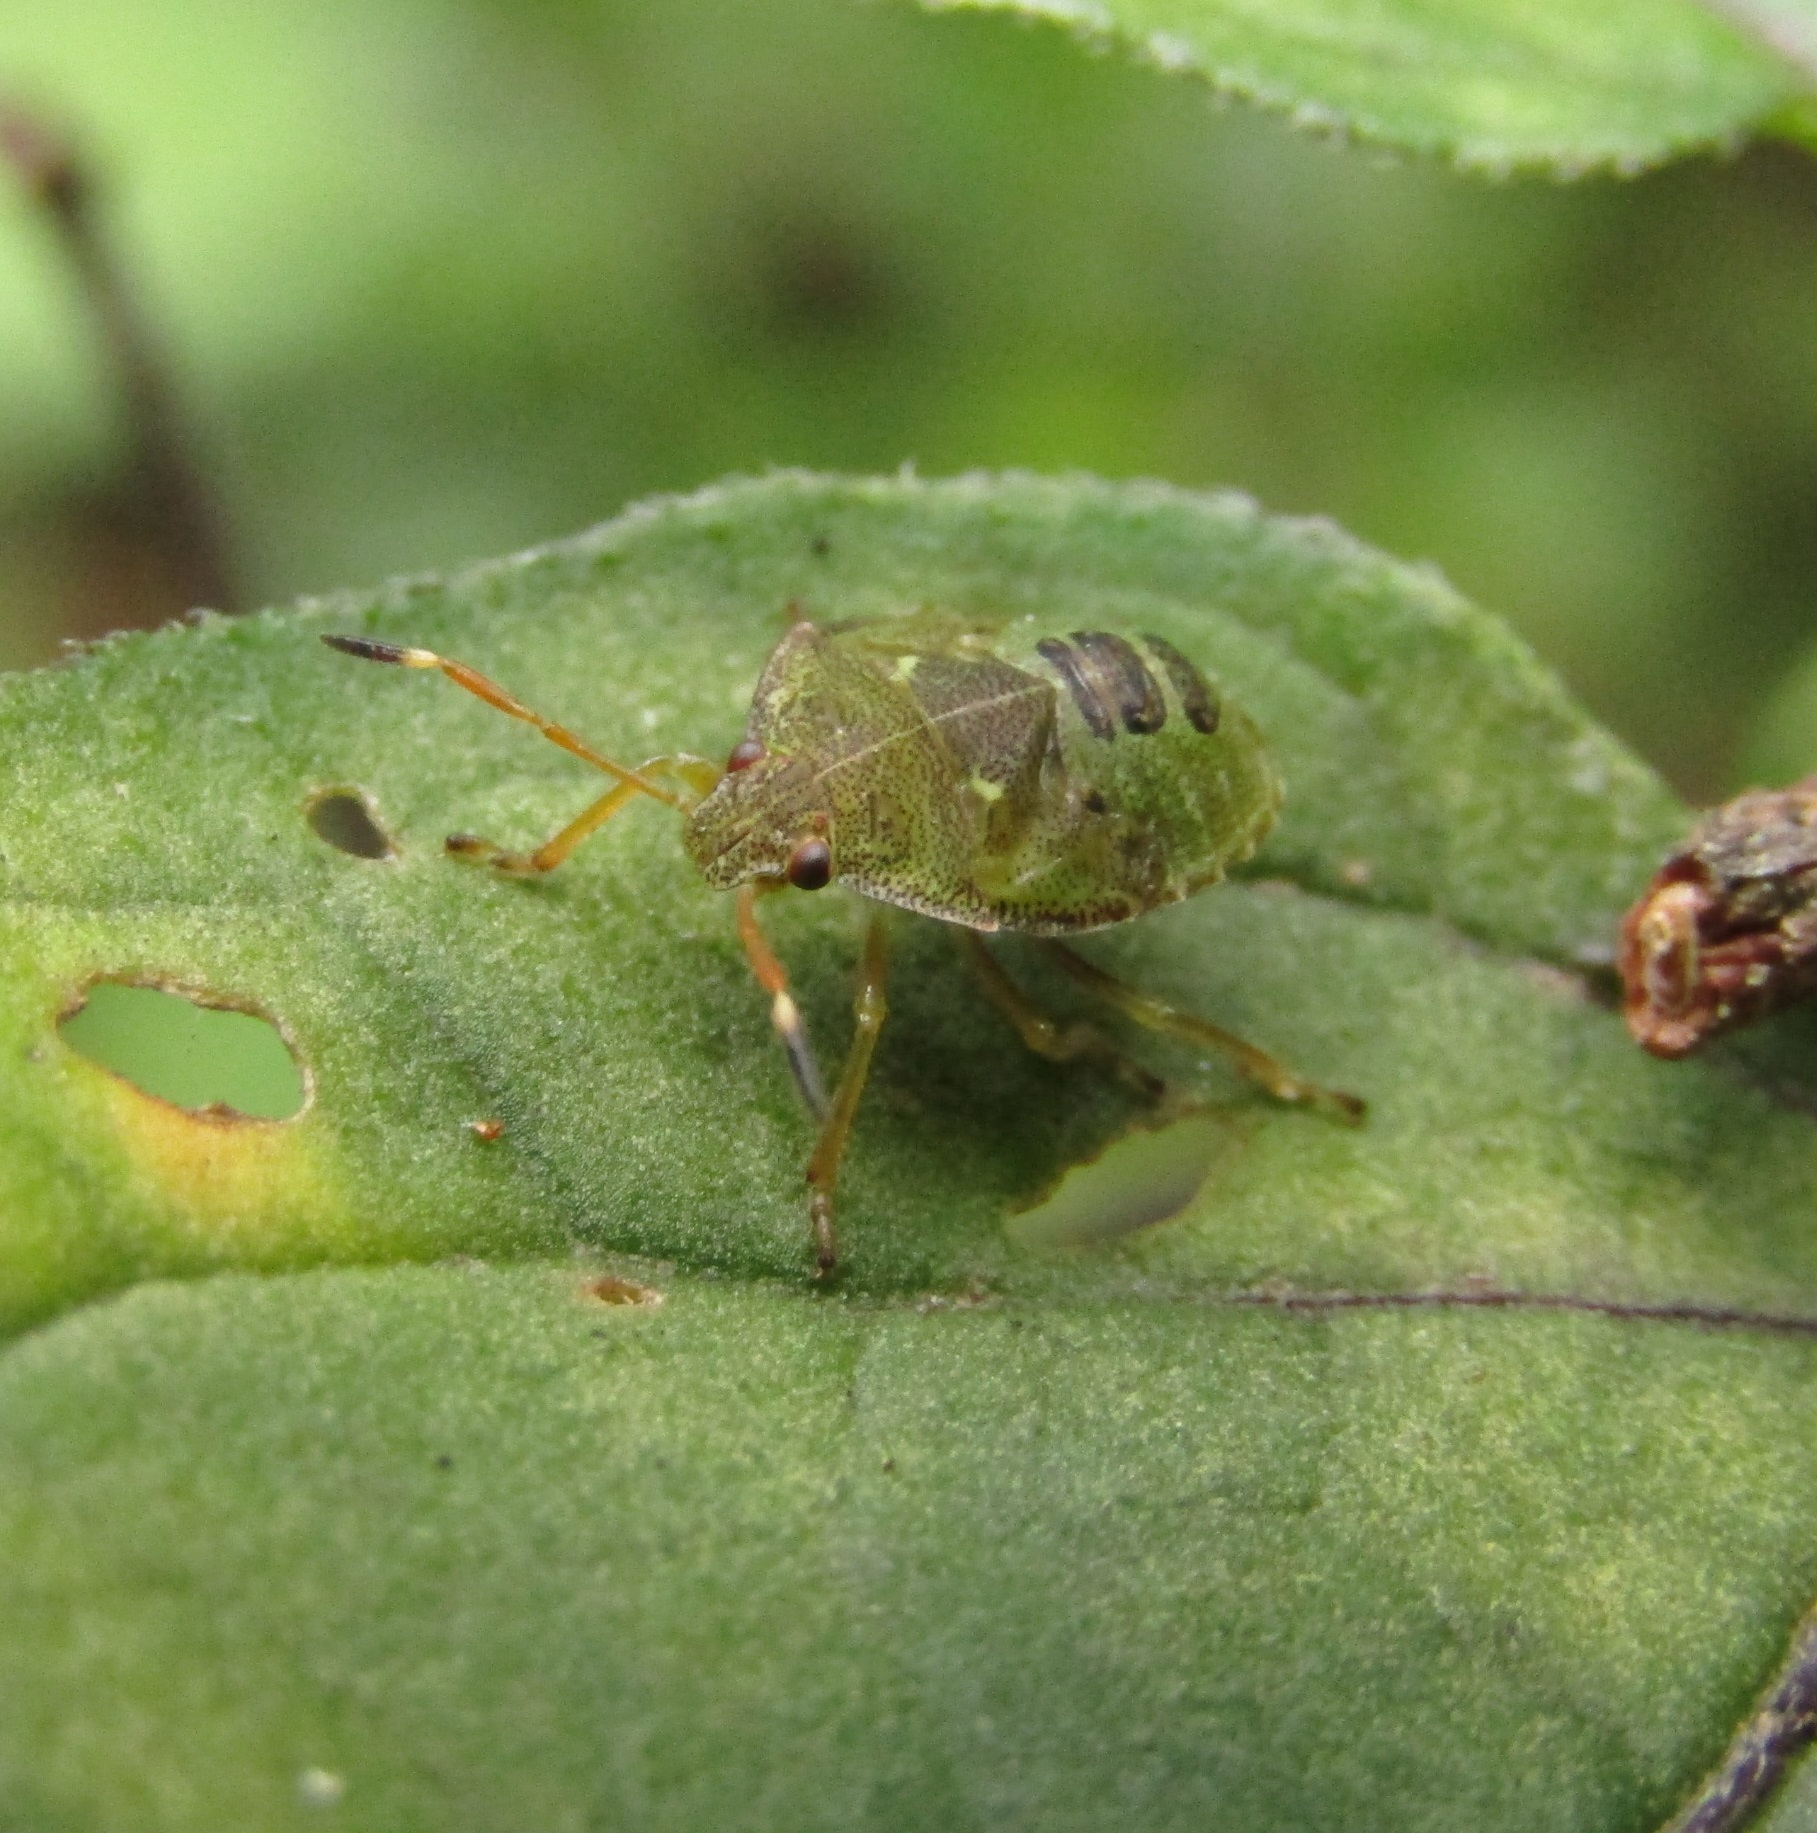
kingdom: Animalia
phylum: Arthropoda
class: Insecta
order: Hemiptera
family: Pentatomidae
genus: Cuspicona
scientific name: Cuspicona simplex
